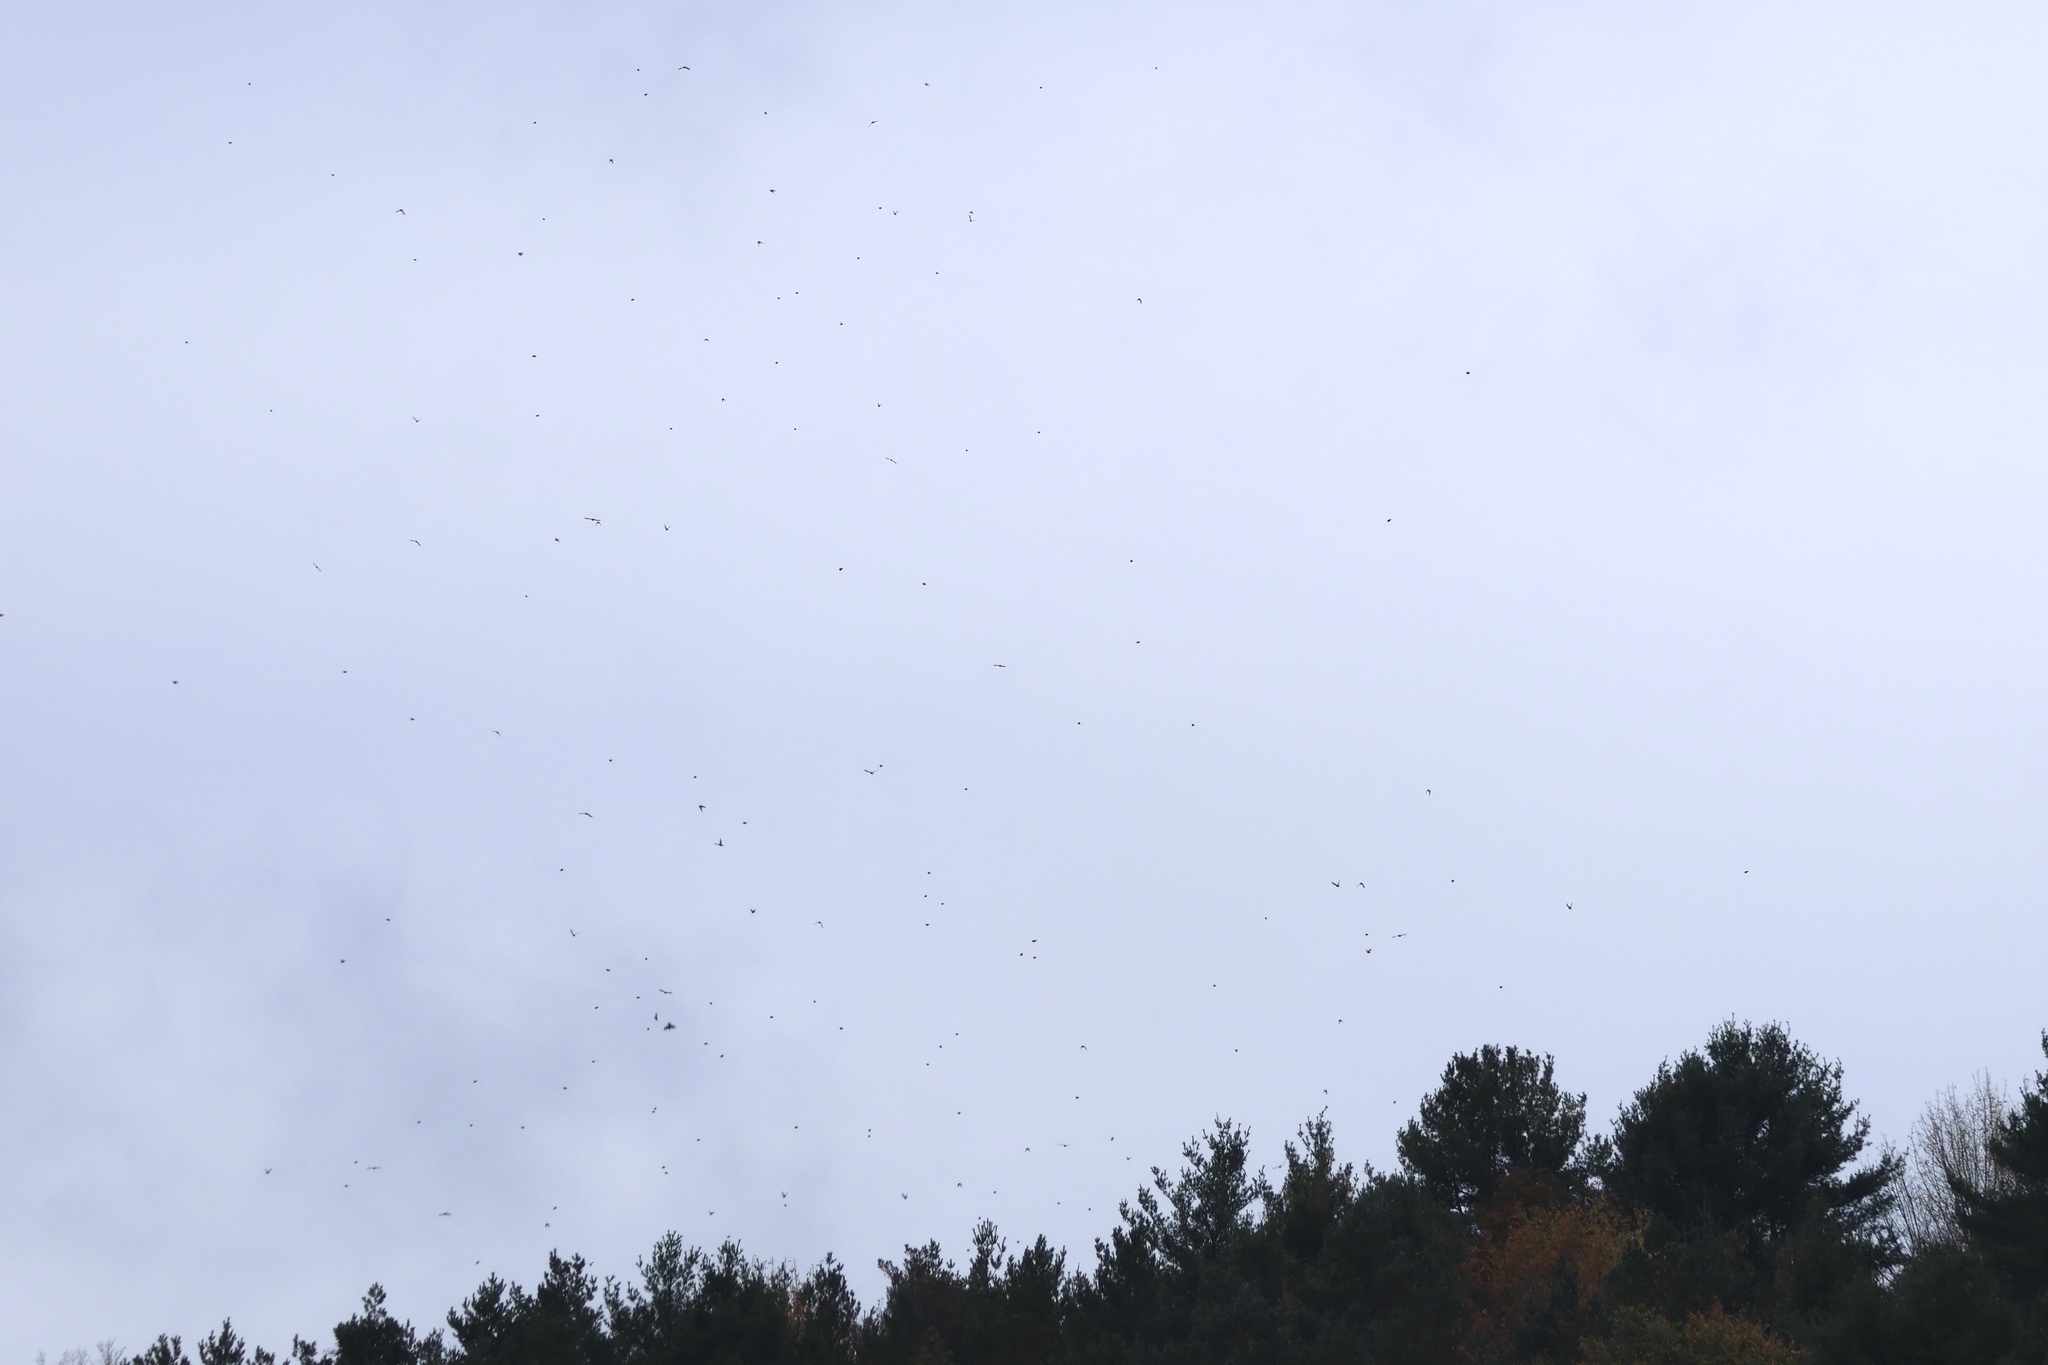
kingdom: Animalia
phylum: Chordata
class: Aves
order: Passeriformes
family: Fringillidae
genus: Spinus
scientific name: Spinus pinus
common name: Pine siskin
